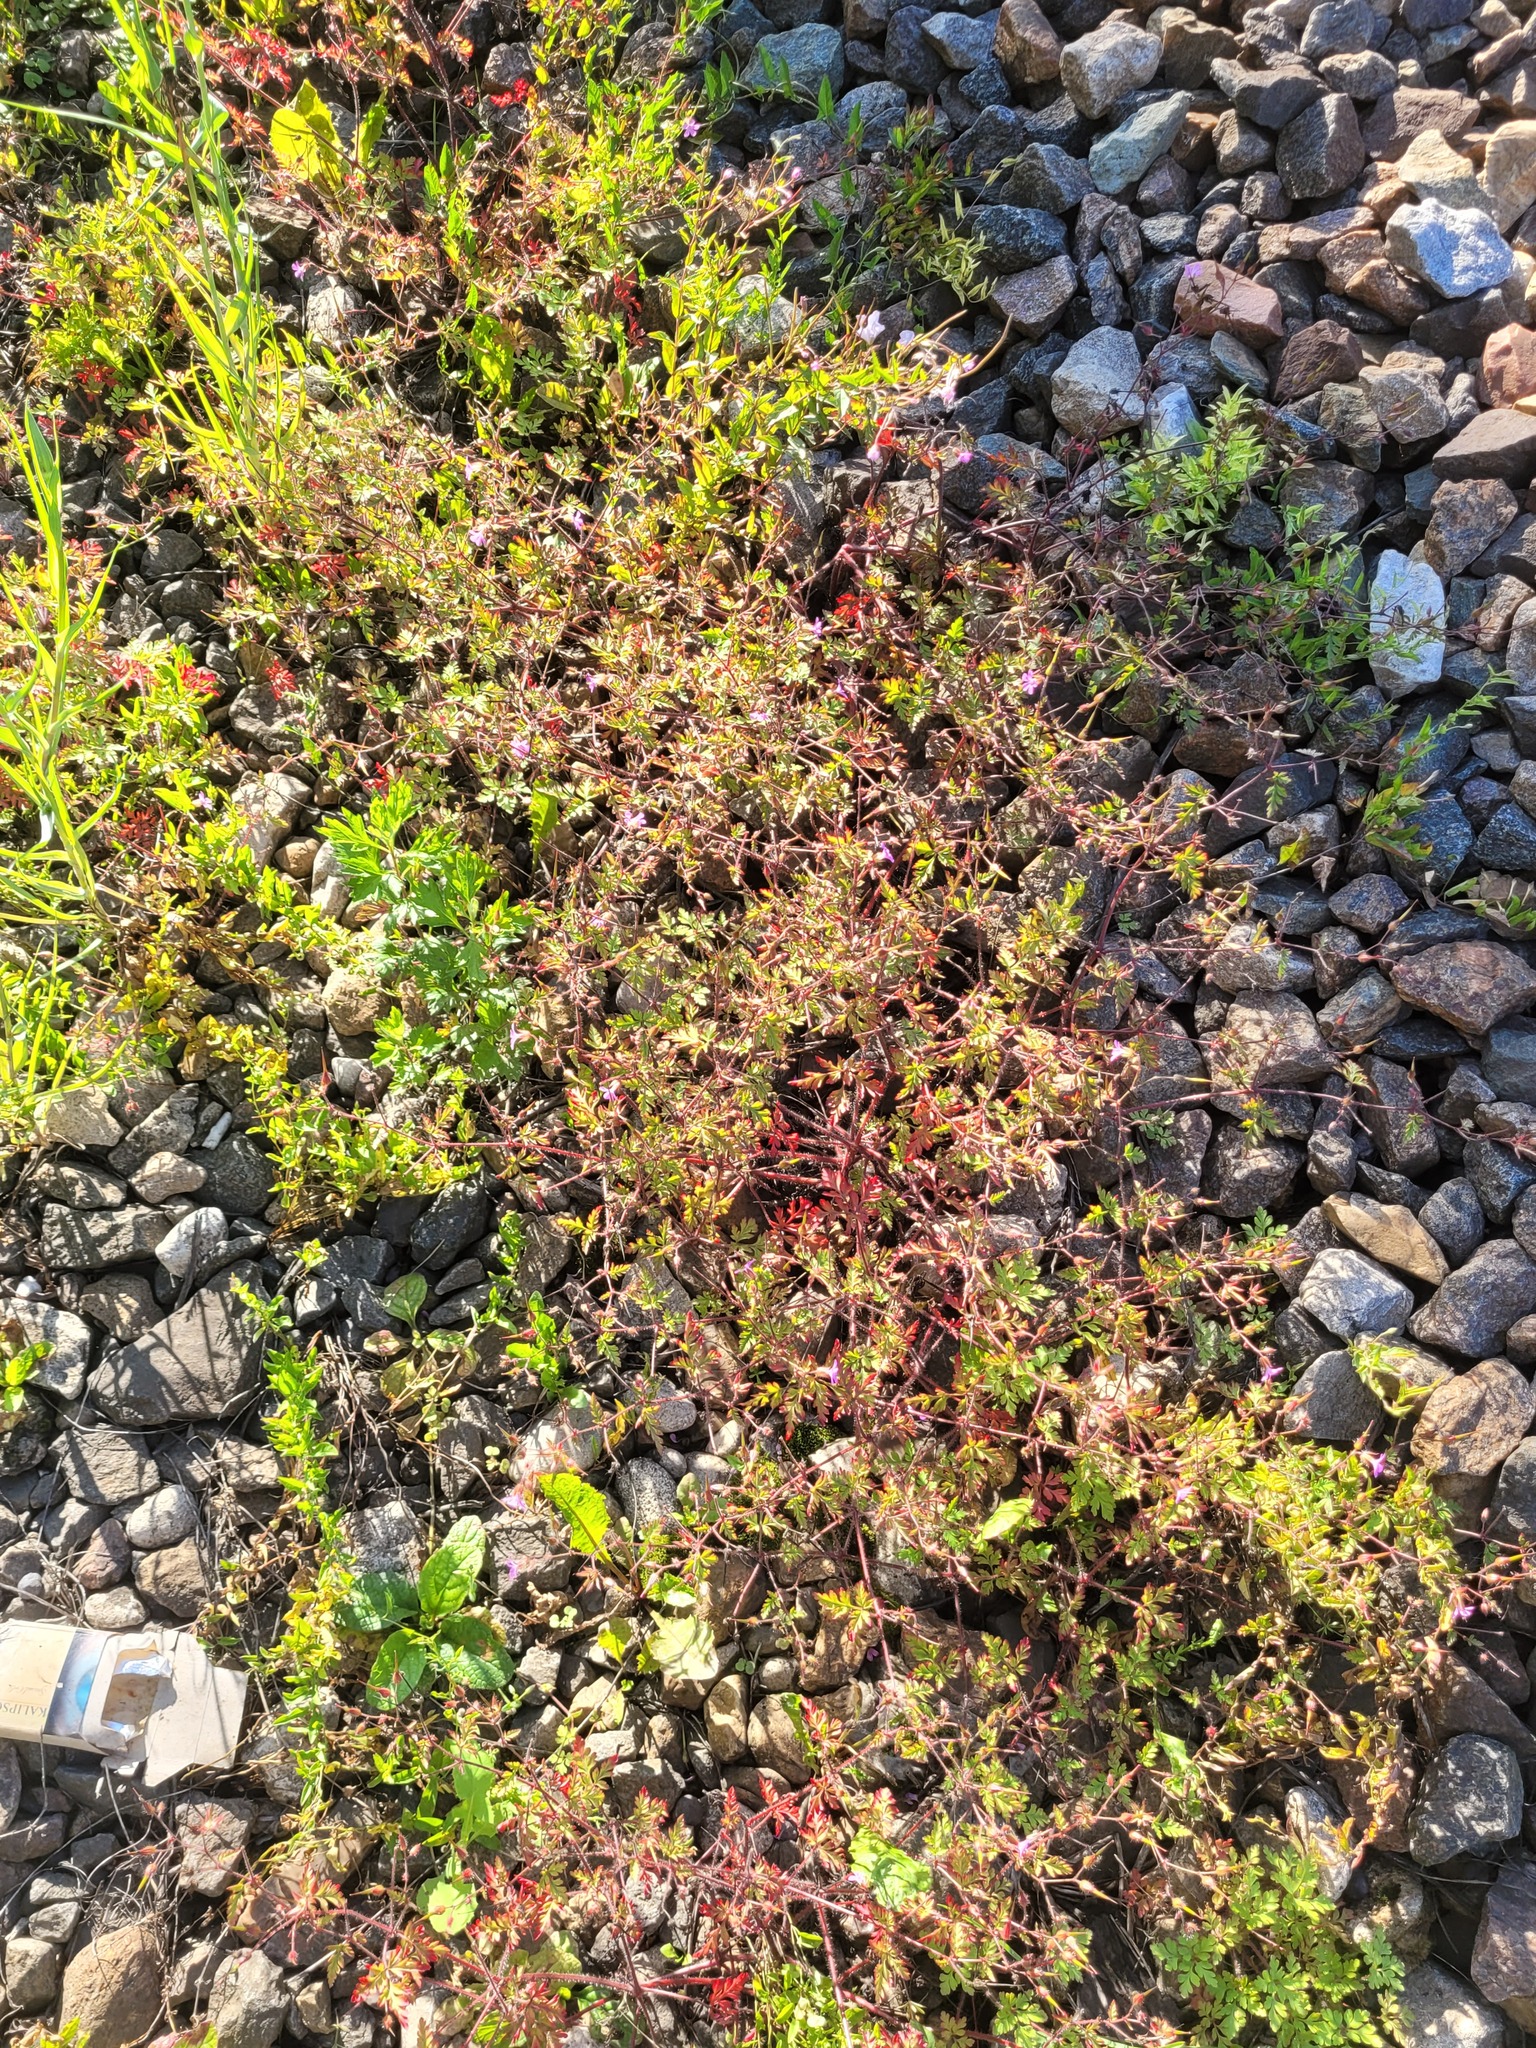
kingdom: Plantae
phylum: Tracheophyta
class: Magnoliopsida
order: Geraniales
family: Geraniaceae
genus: Geranium
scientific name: Geranium robertianum
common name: Herb-robert
